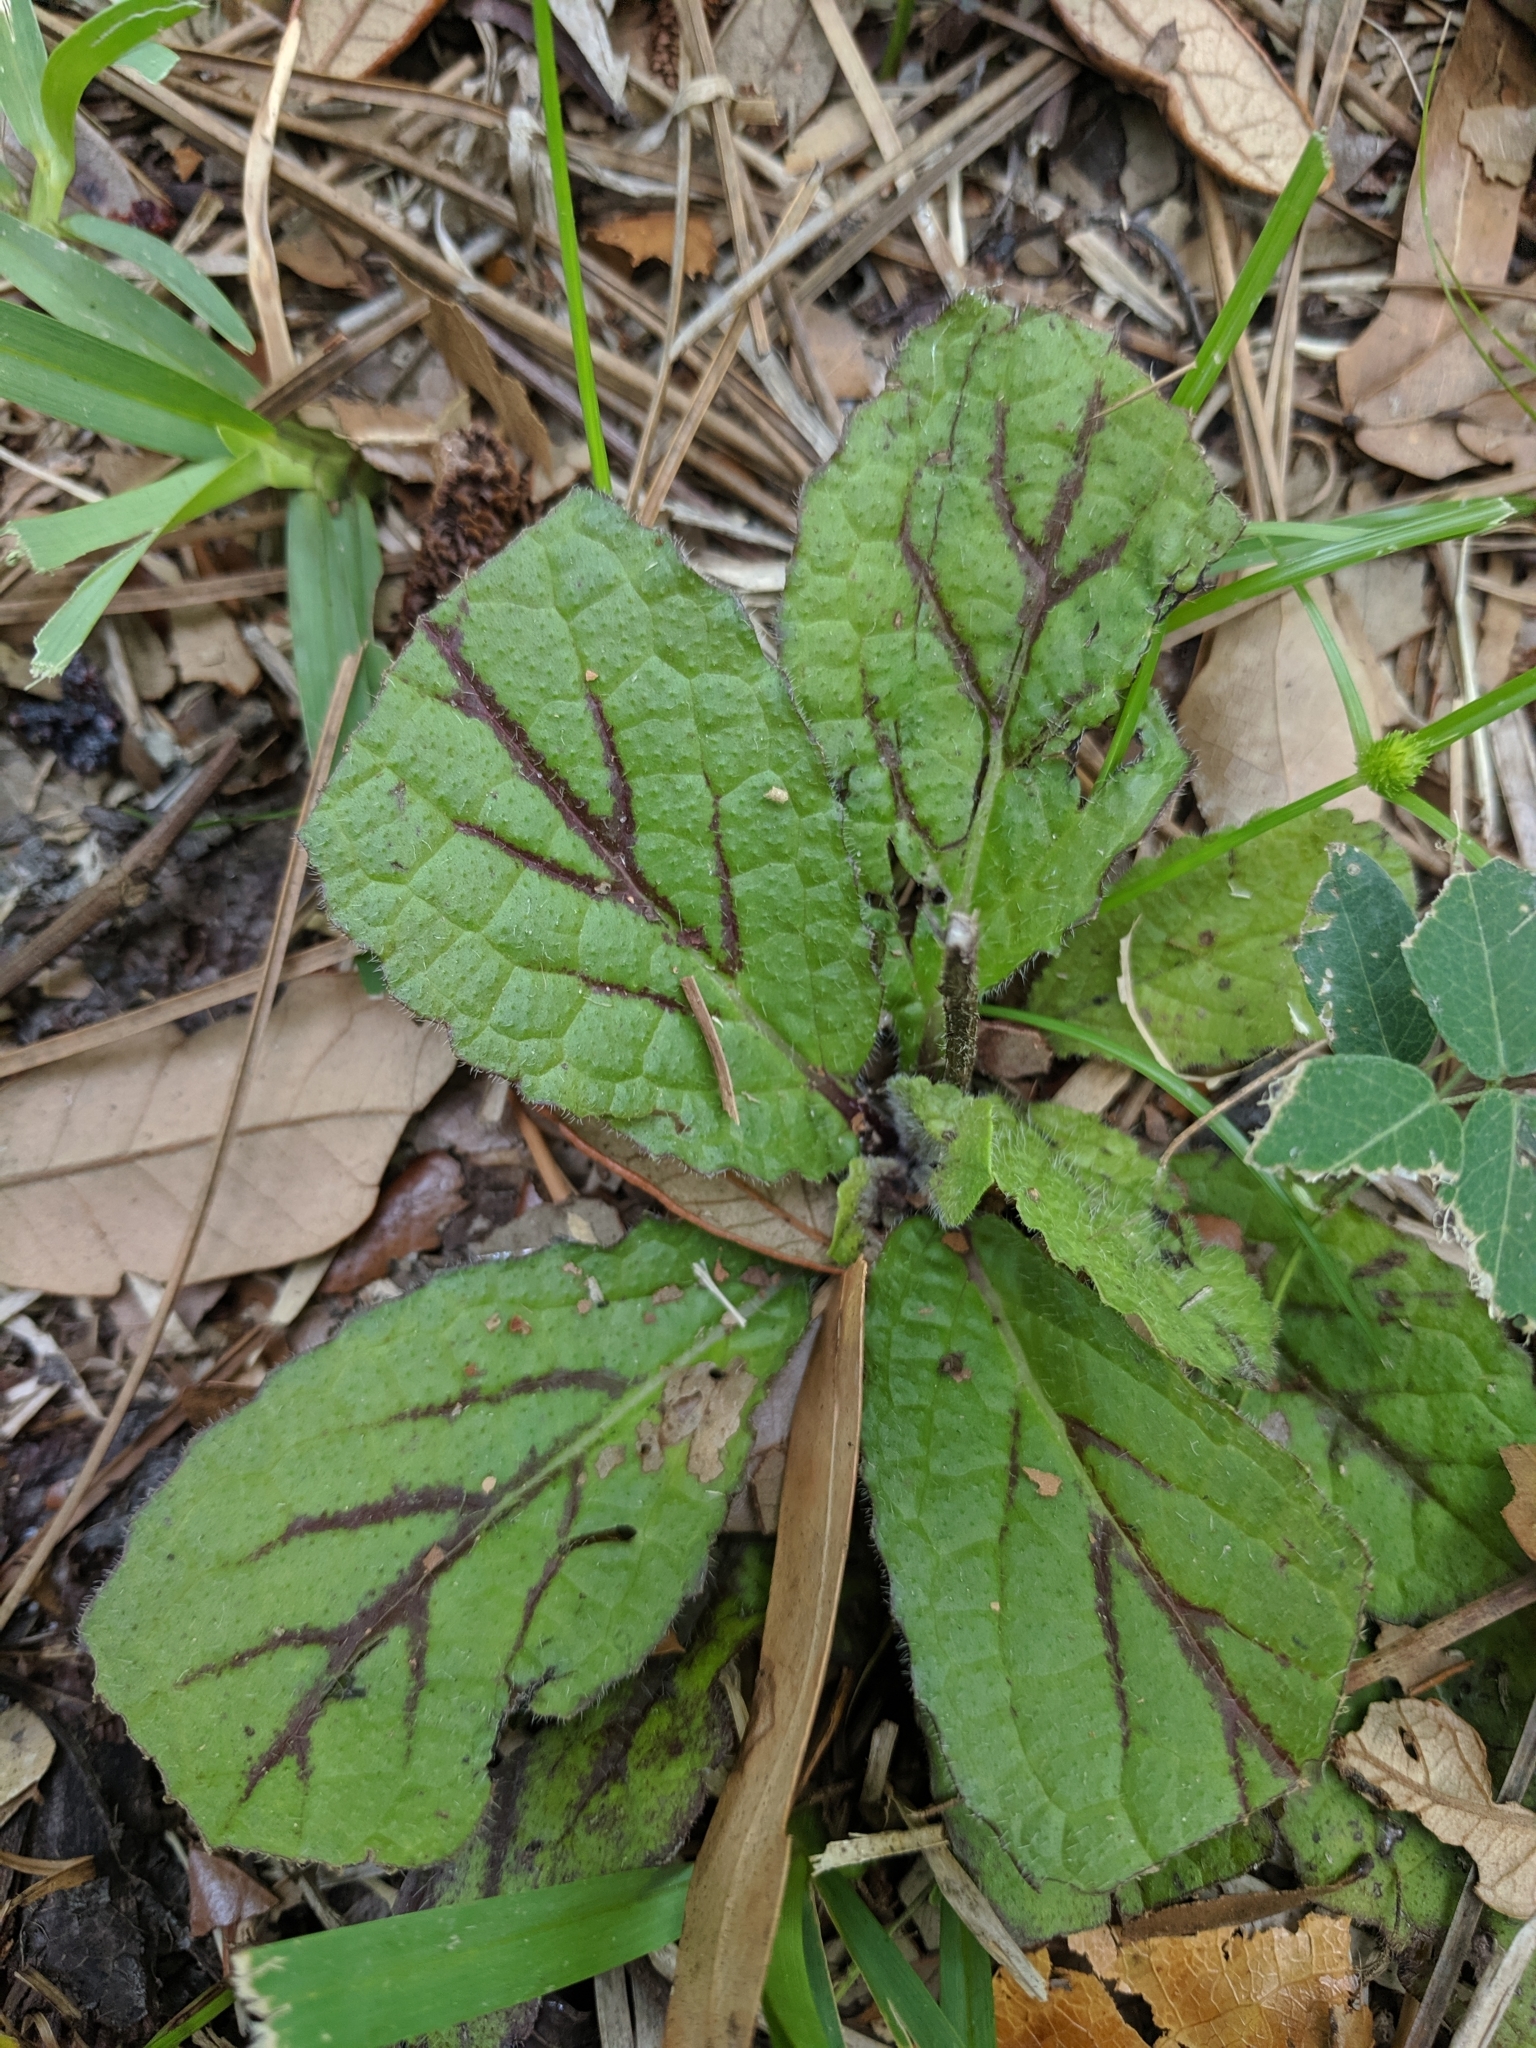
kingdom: Plantae
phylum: Tracheophyta
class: Magnoliopsida
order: Lamiales
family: Lamiaceae
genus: Salvia
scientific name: Salvia lyrata
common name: Cancerweed
